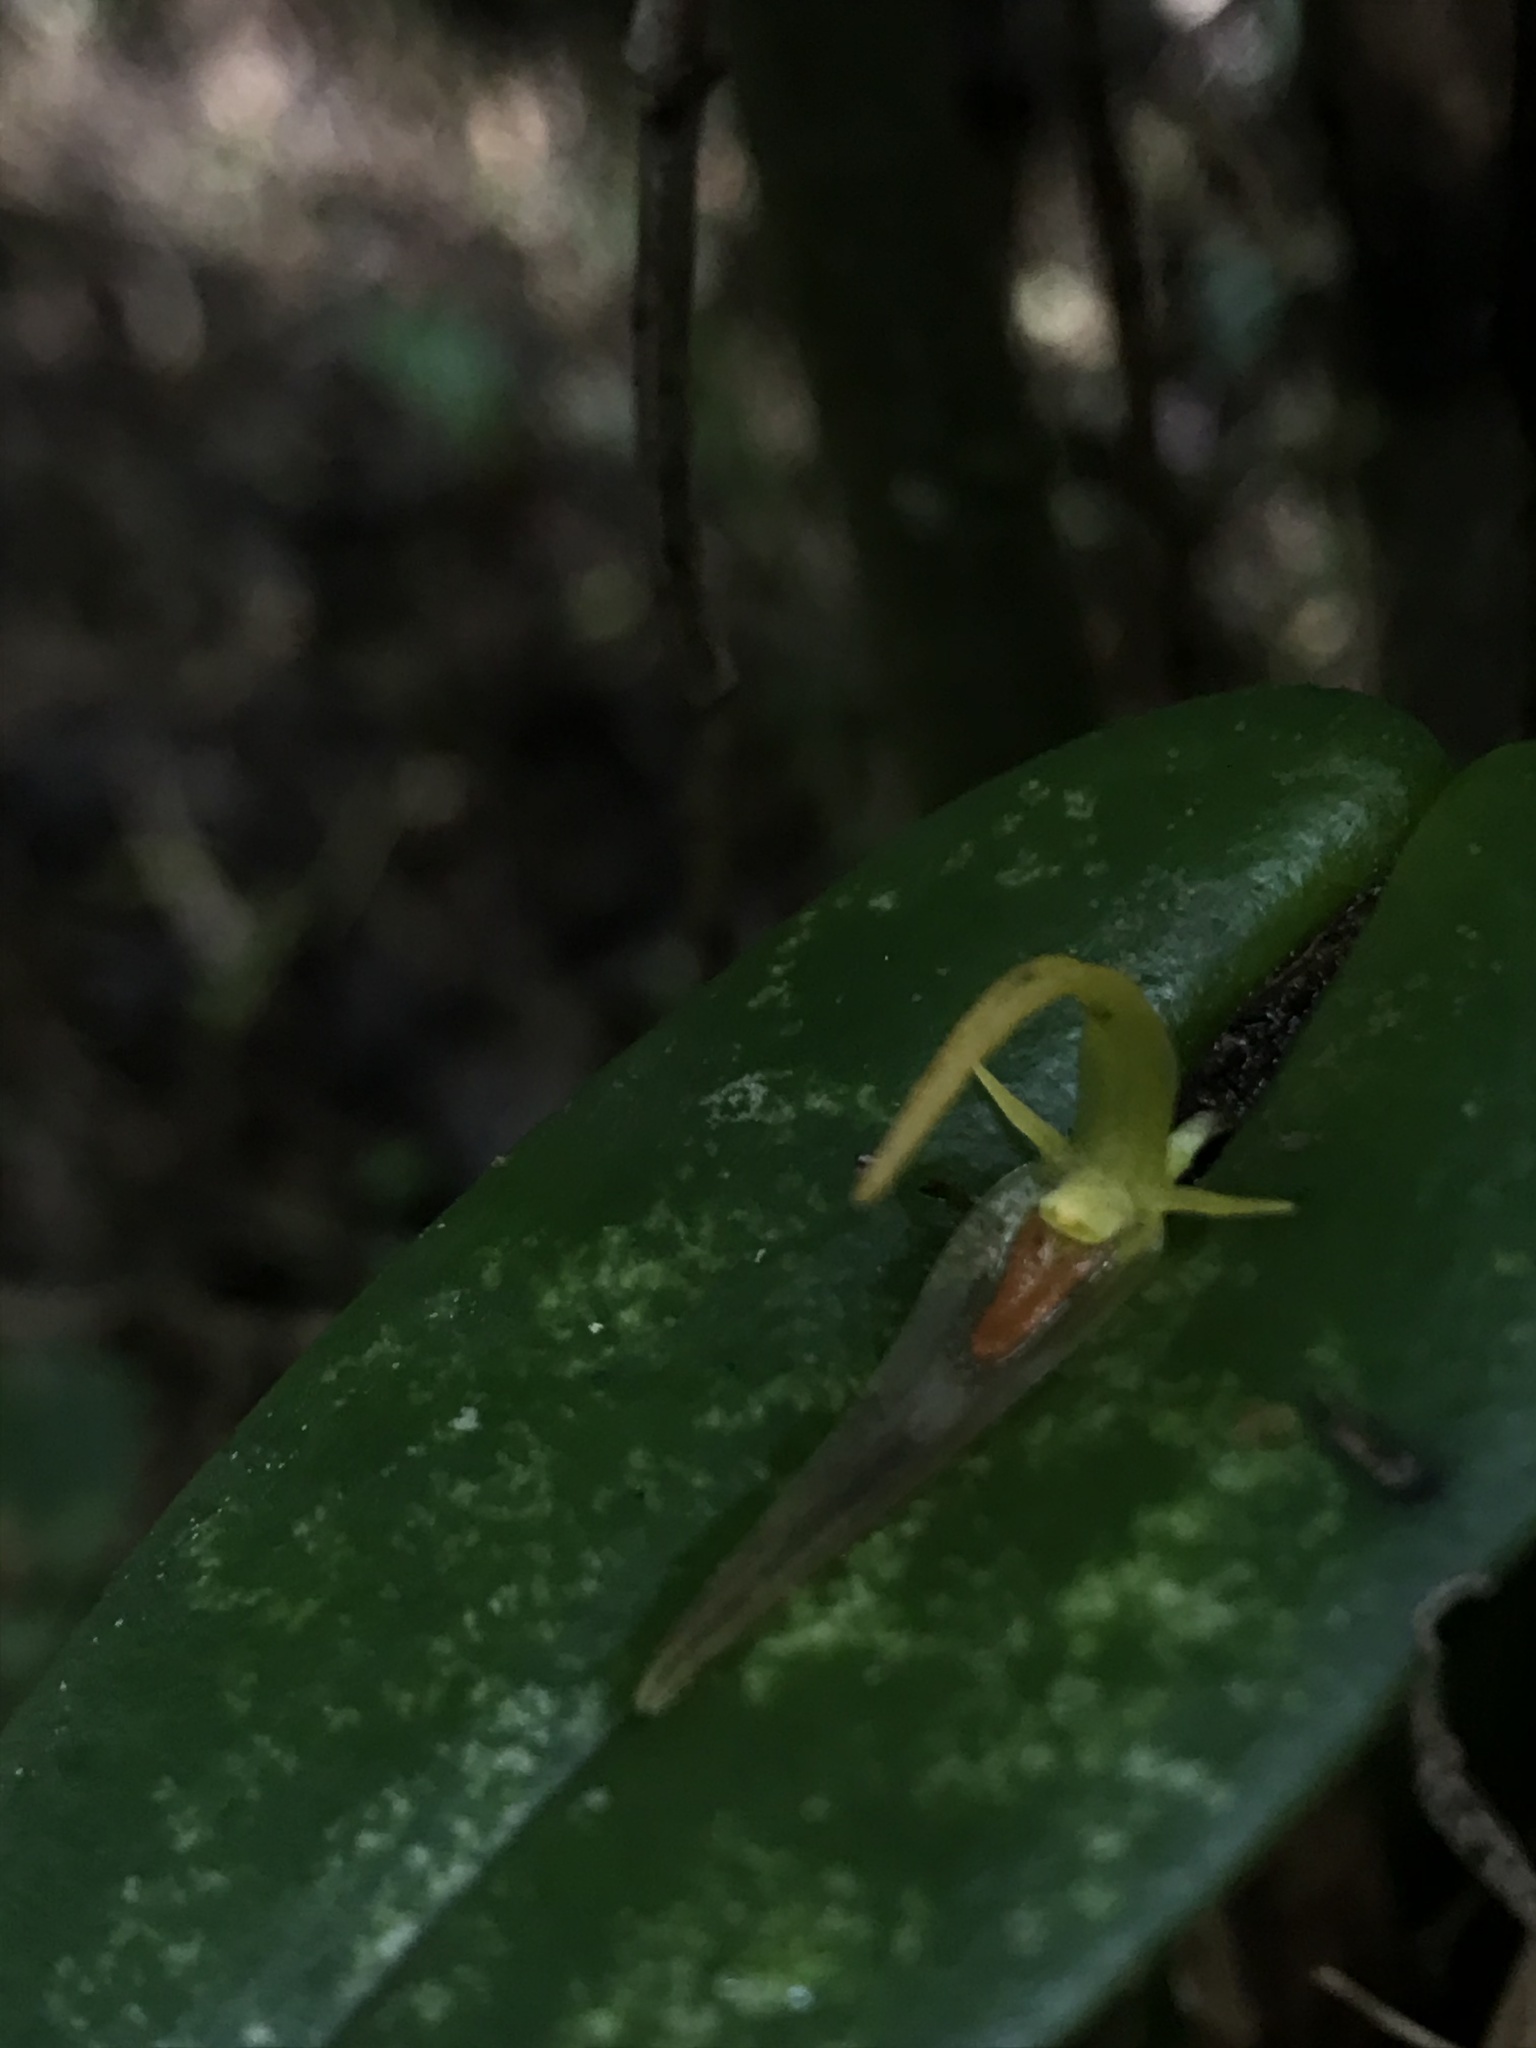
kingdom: Plantae
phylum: Tracheophyta
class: Liliopsida
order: Asparagales
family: Orchidaceae
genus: Pleurothallis
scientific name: Pleurothallis microcardia
